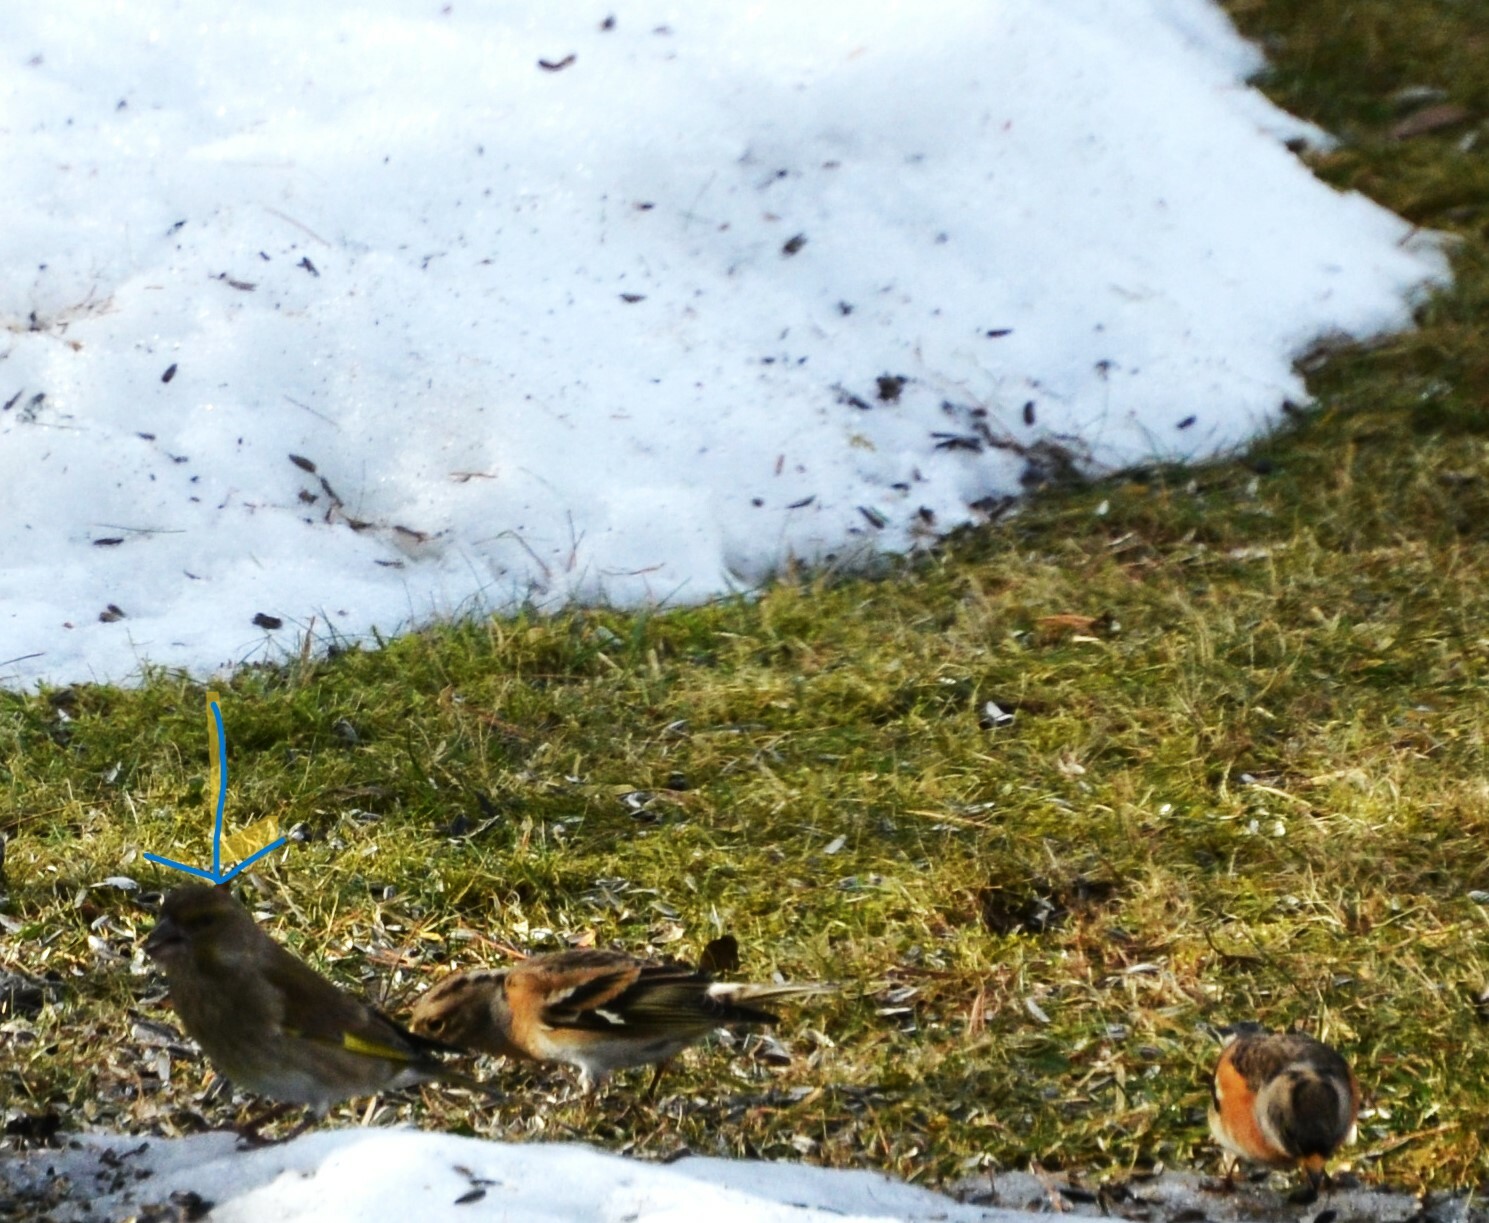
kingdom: Plantae
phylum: Tracheophyta
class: Liliopsida
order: Poales
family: Poaceae
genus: Chloris
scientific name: Chloris chloris
